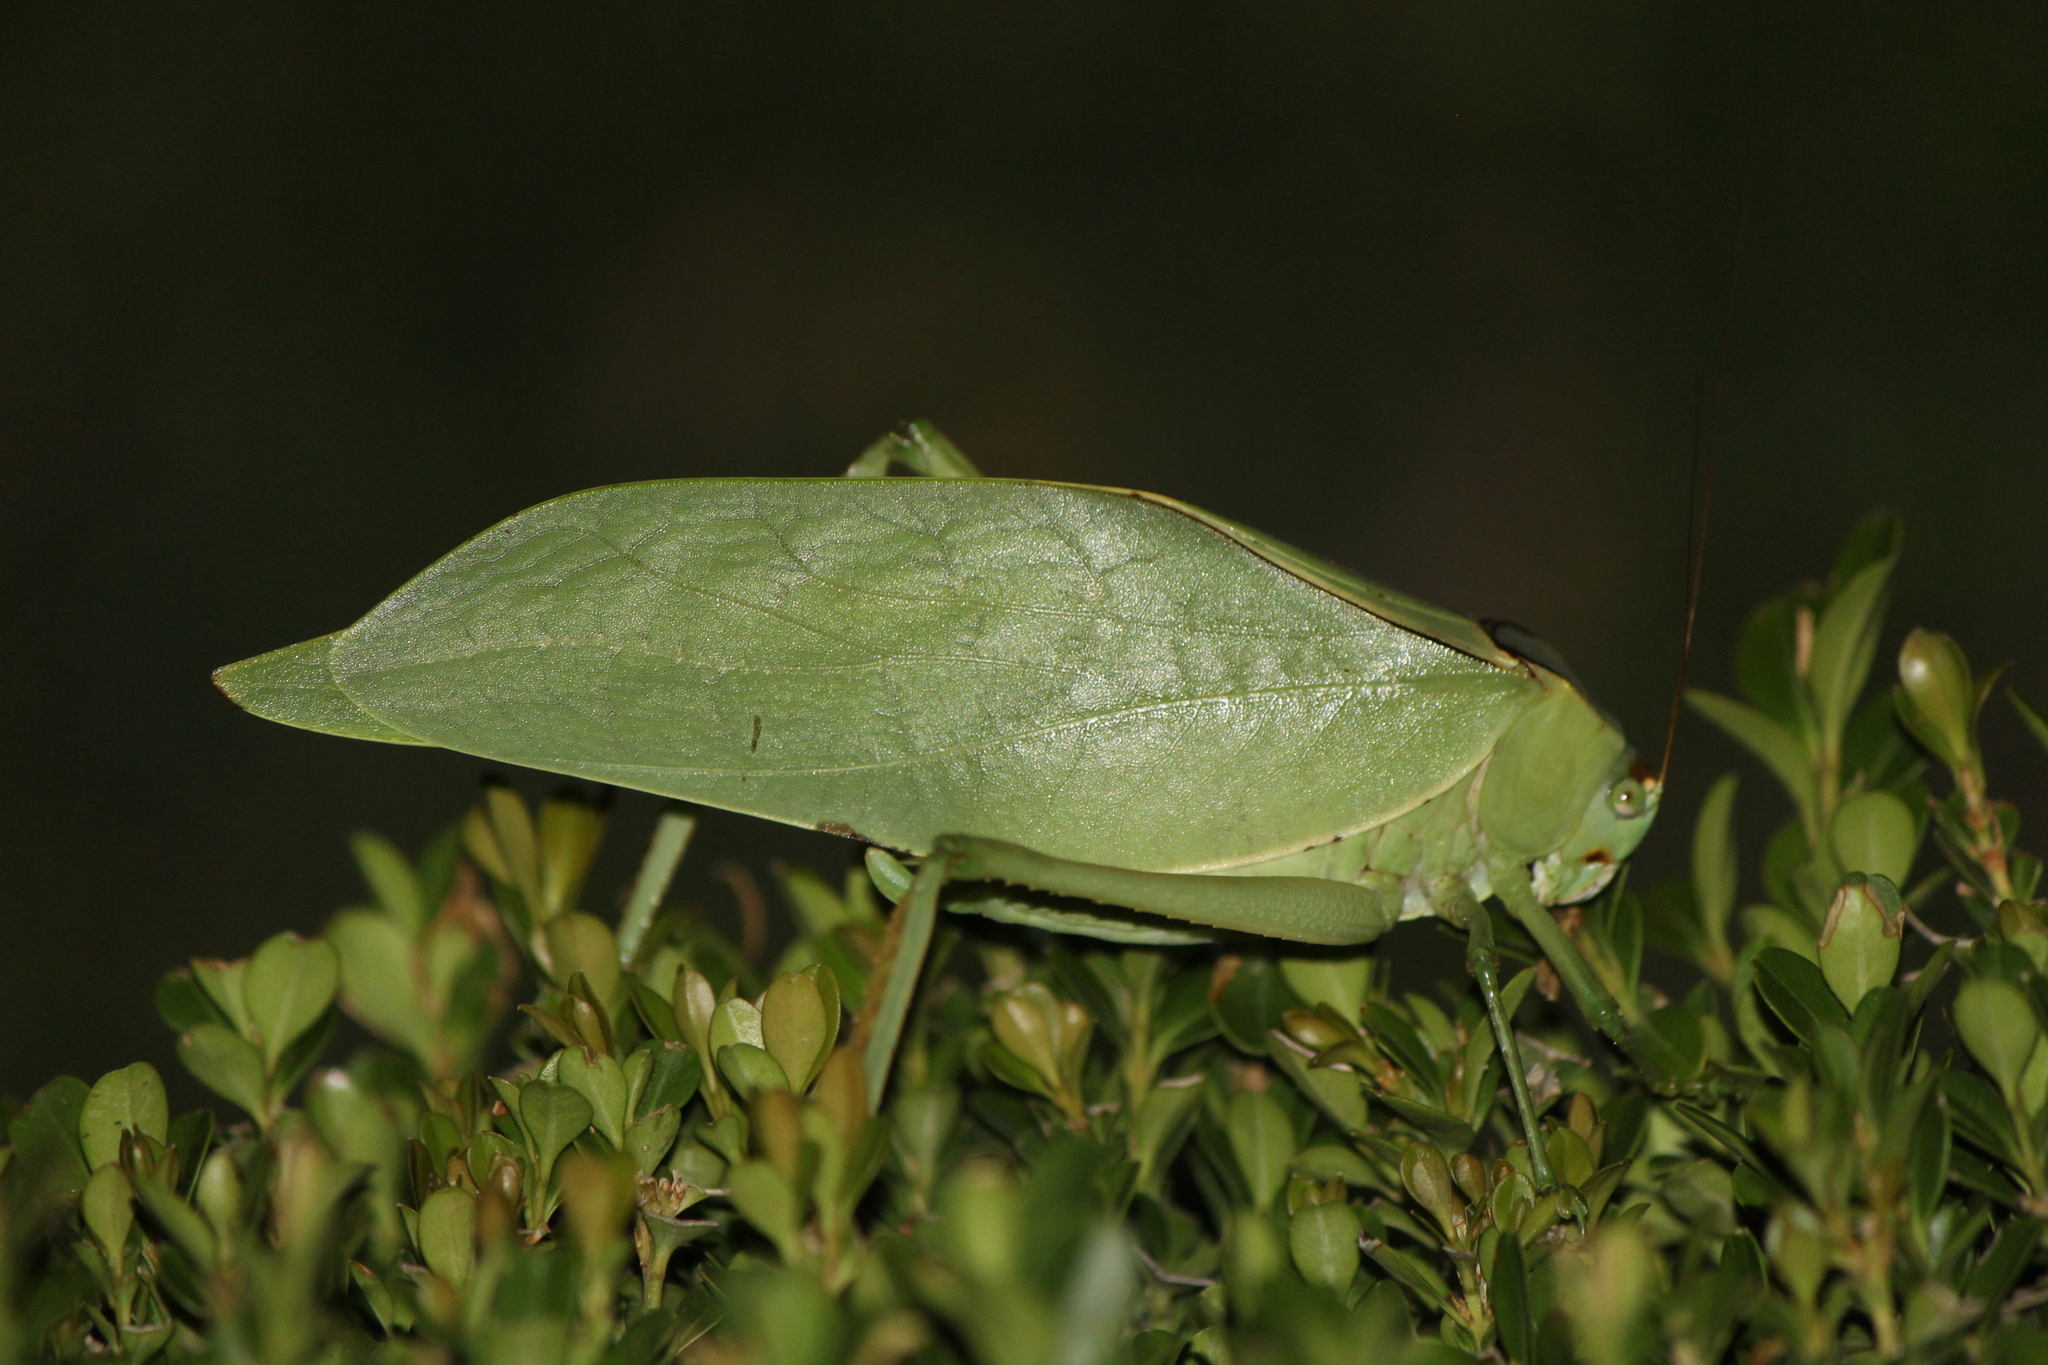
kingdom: Animalia
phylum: Arthropoda
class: Insecta
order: Orthoptera
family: Tettigoniidae
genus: Stilpnochlora
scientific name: Stilpnochlora azteca
